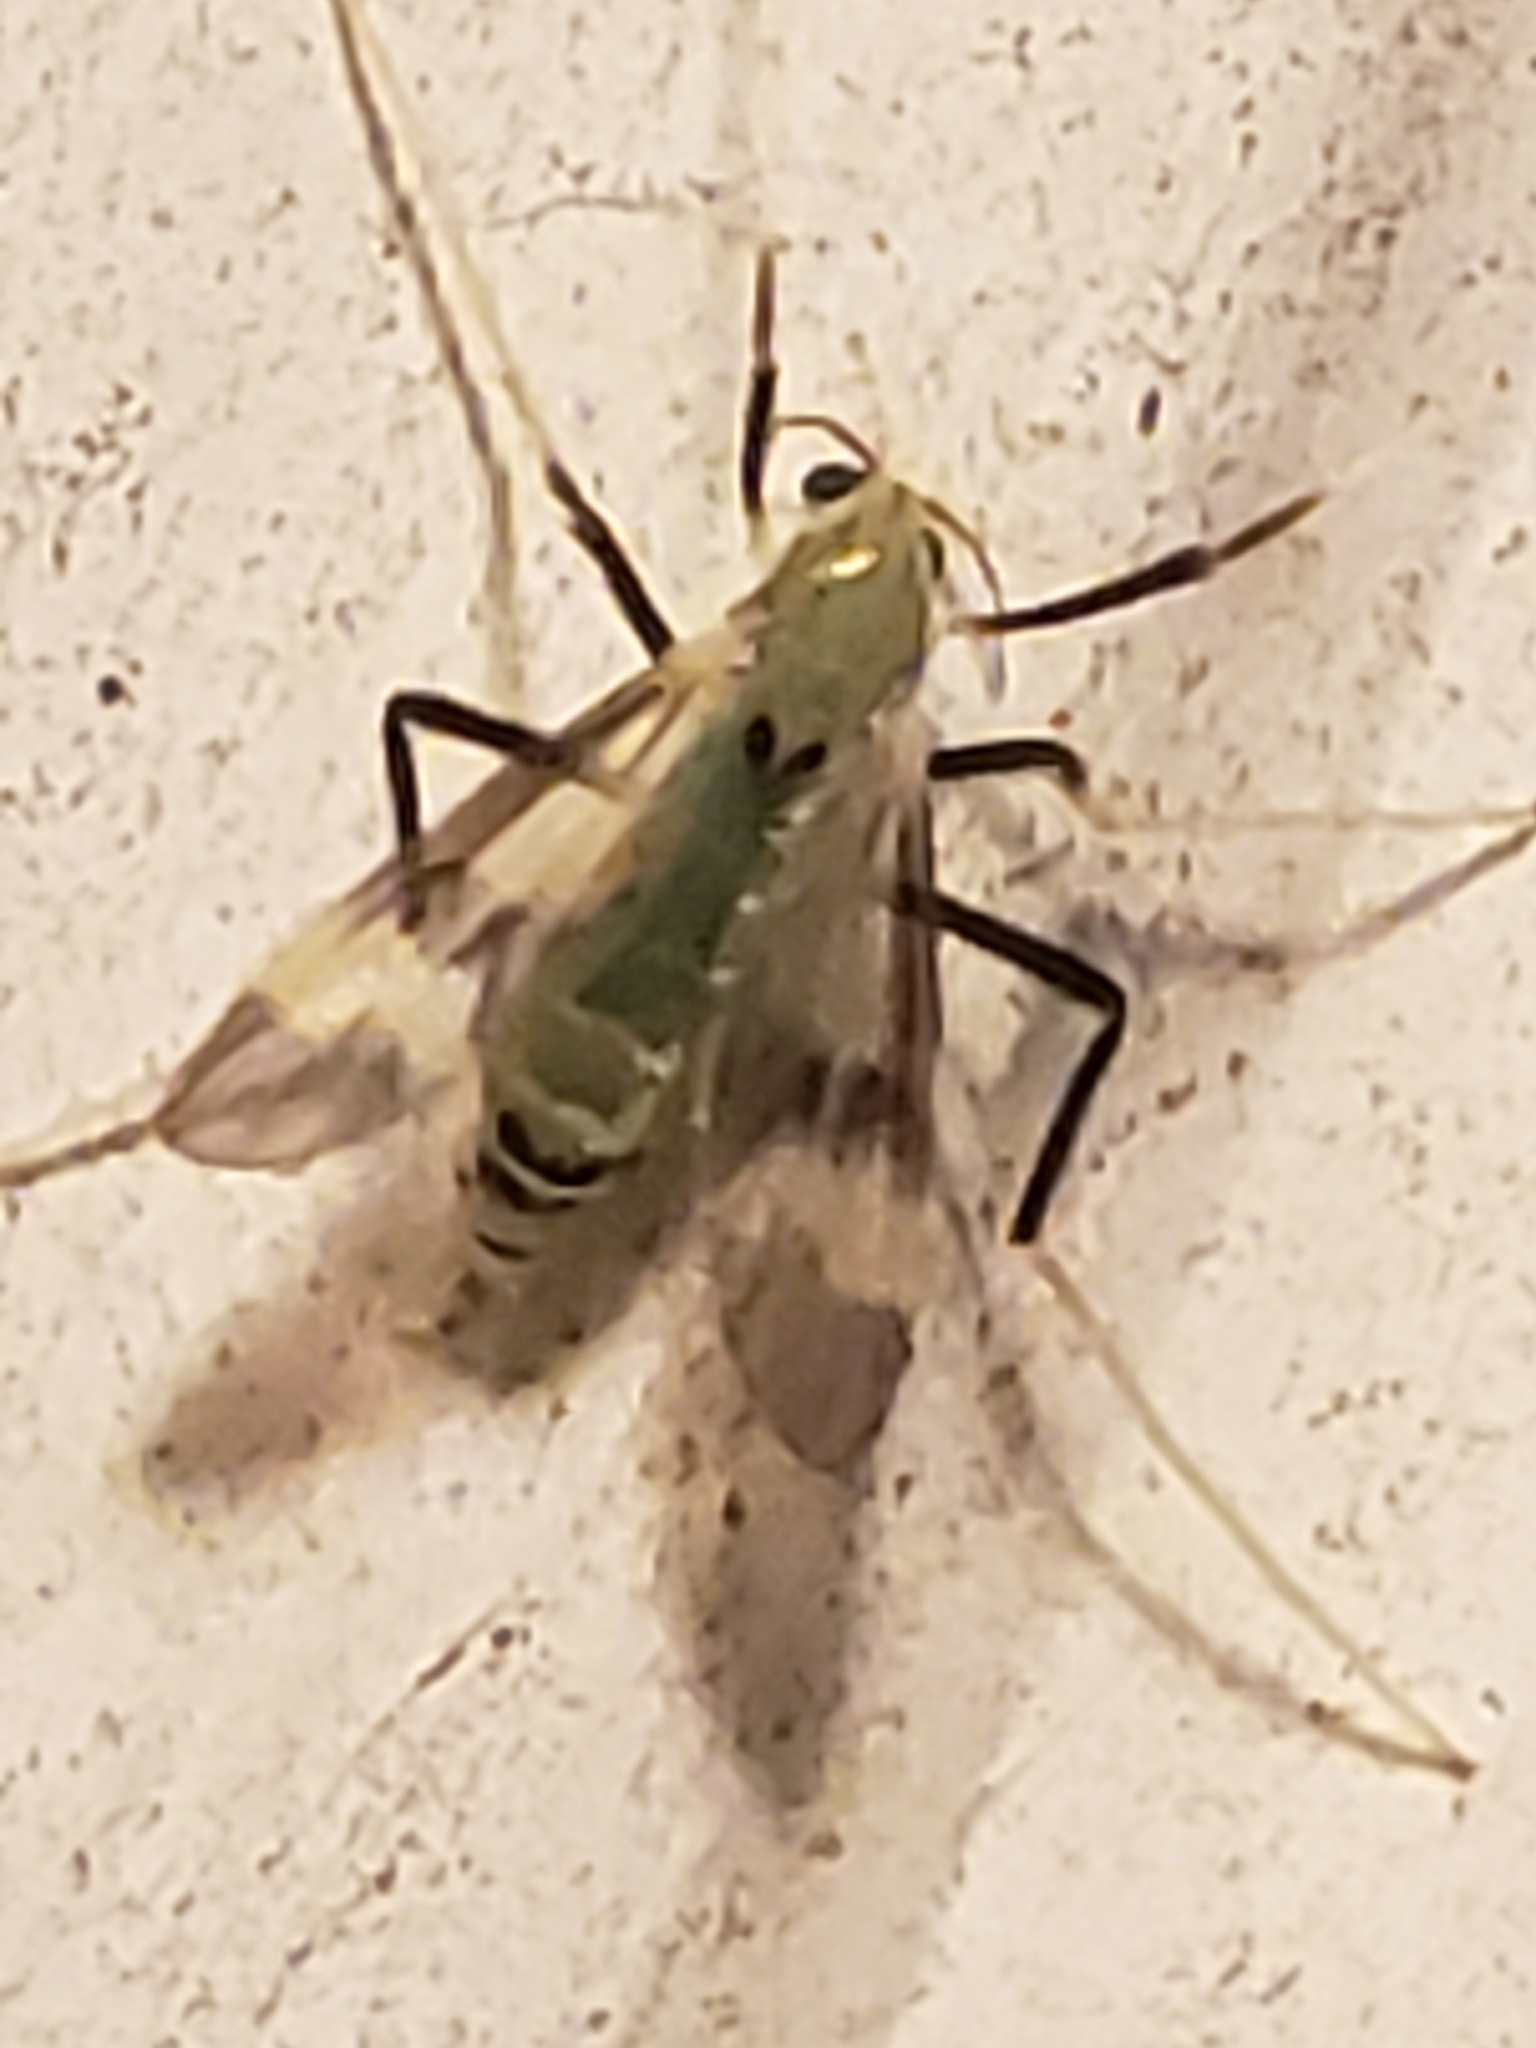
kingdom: Animalia
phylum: Arthropoda
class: Insecta
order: Diptera
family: Chironomidae
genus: Stenochironomus
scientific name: Stenochironomus hilaris
